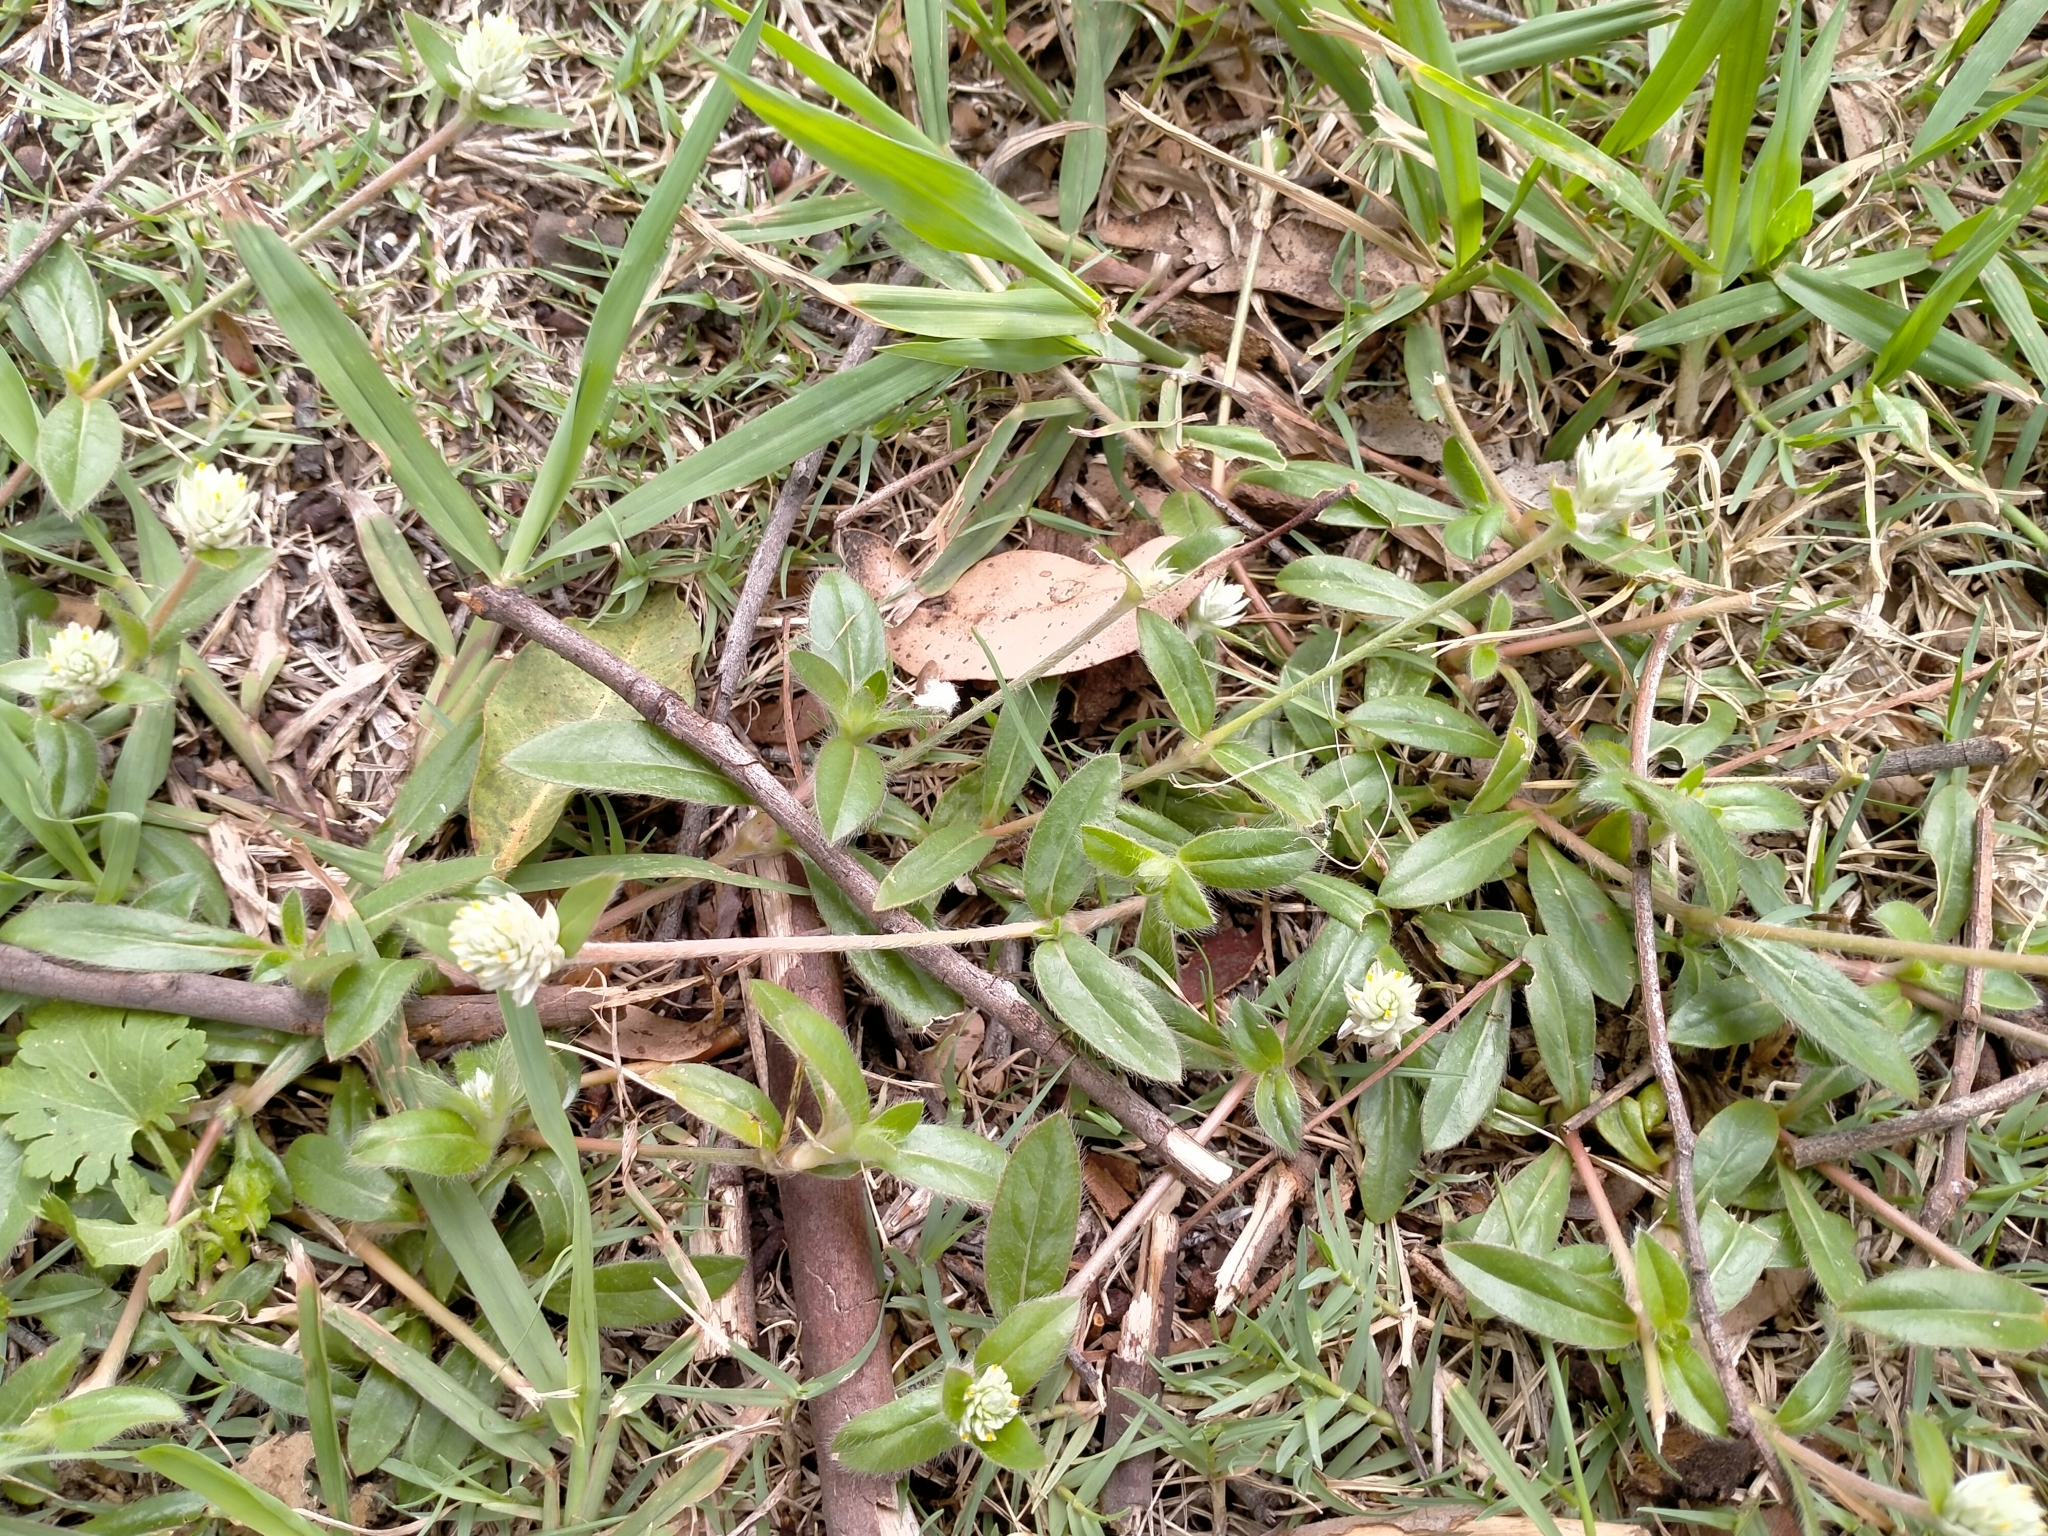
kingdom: Plantae
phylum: Tracheophyta
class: Magnoliopsida
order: Caryophyllales
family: Amaranthaceae
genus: Gomphrena
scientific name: Gomphrena celosioides
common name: Gomphrena-weed
